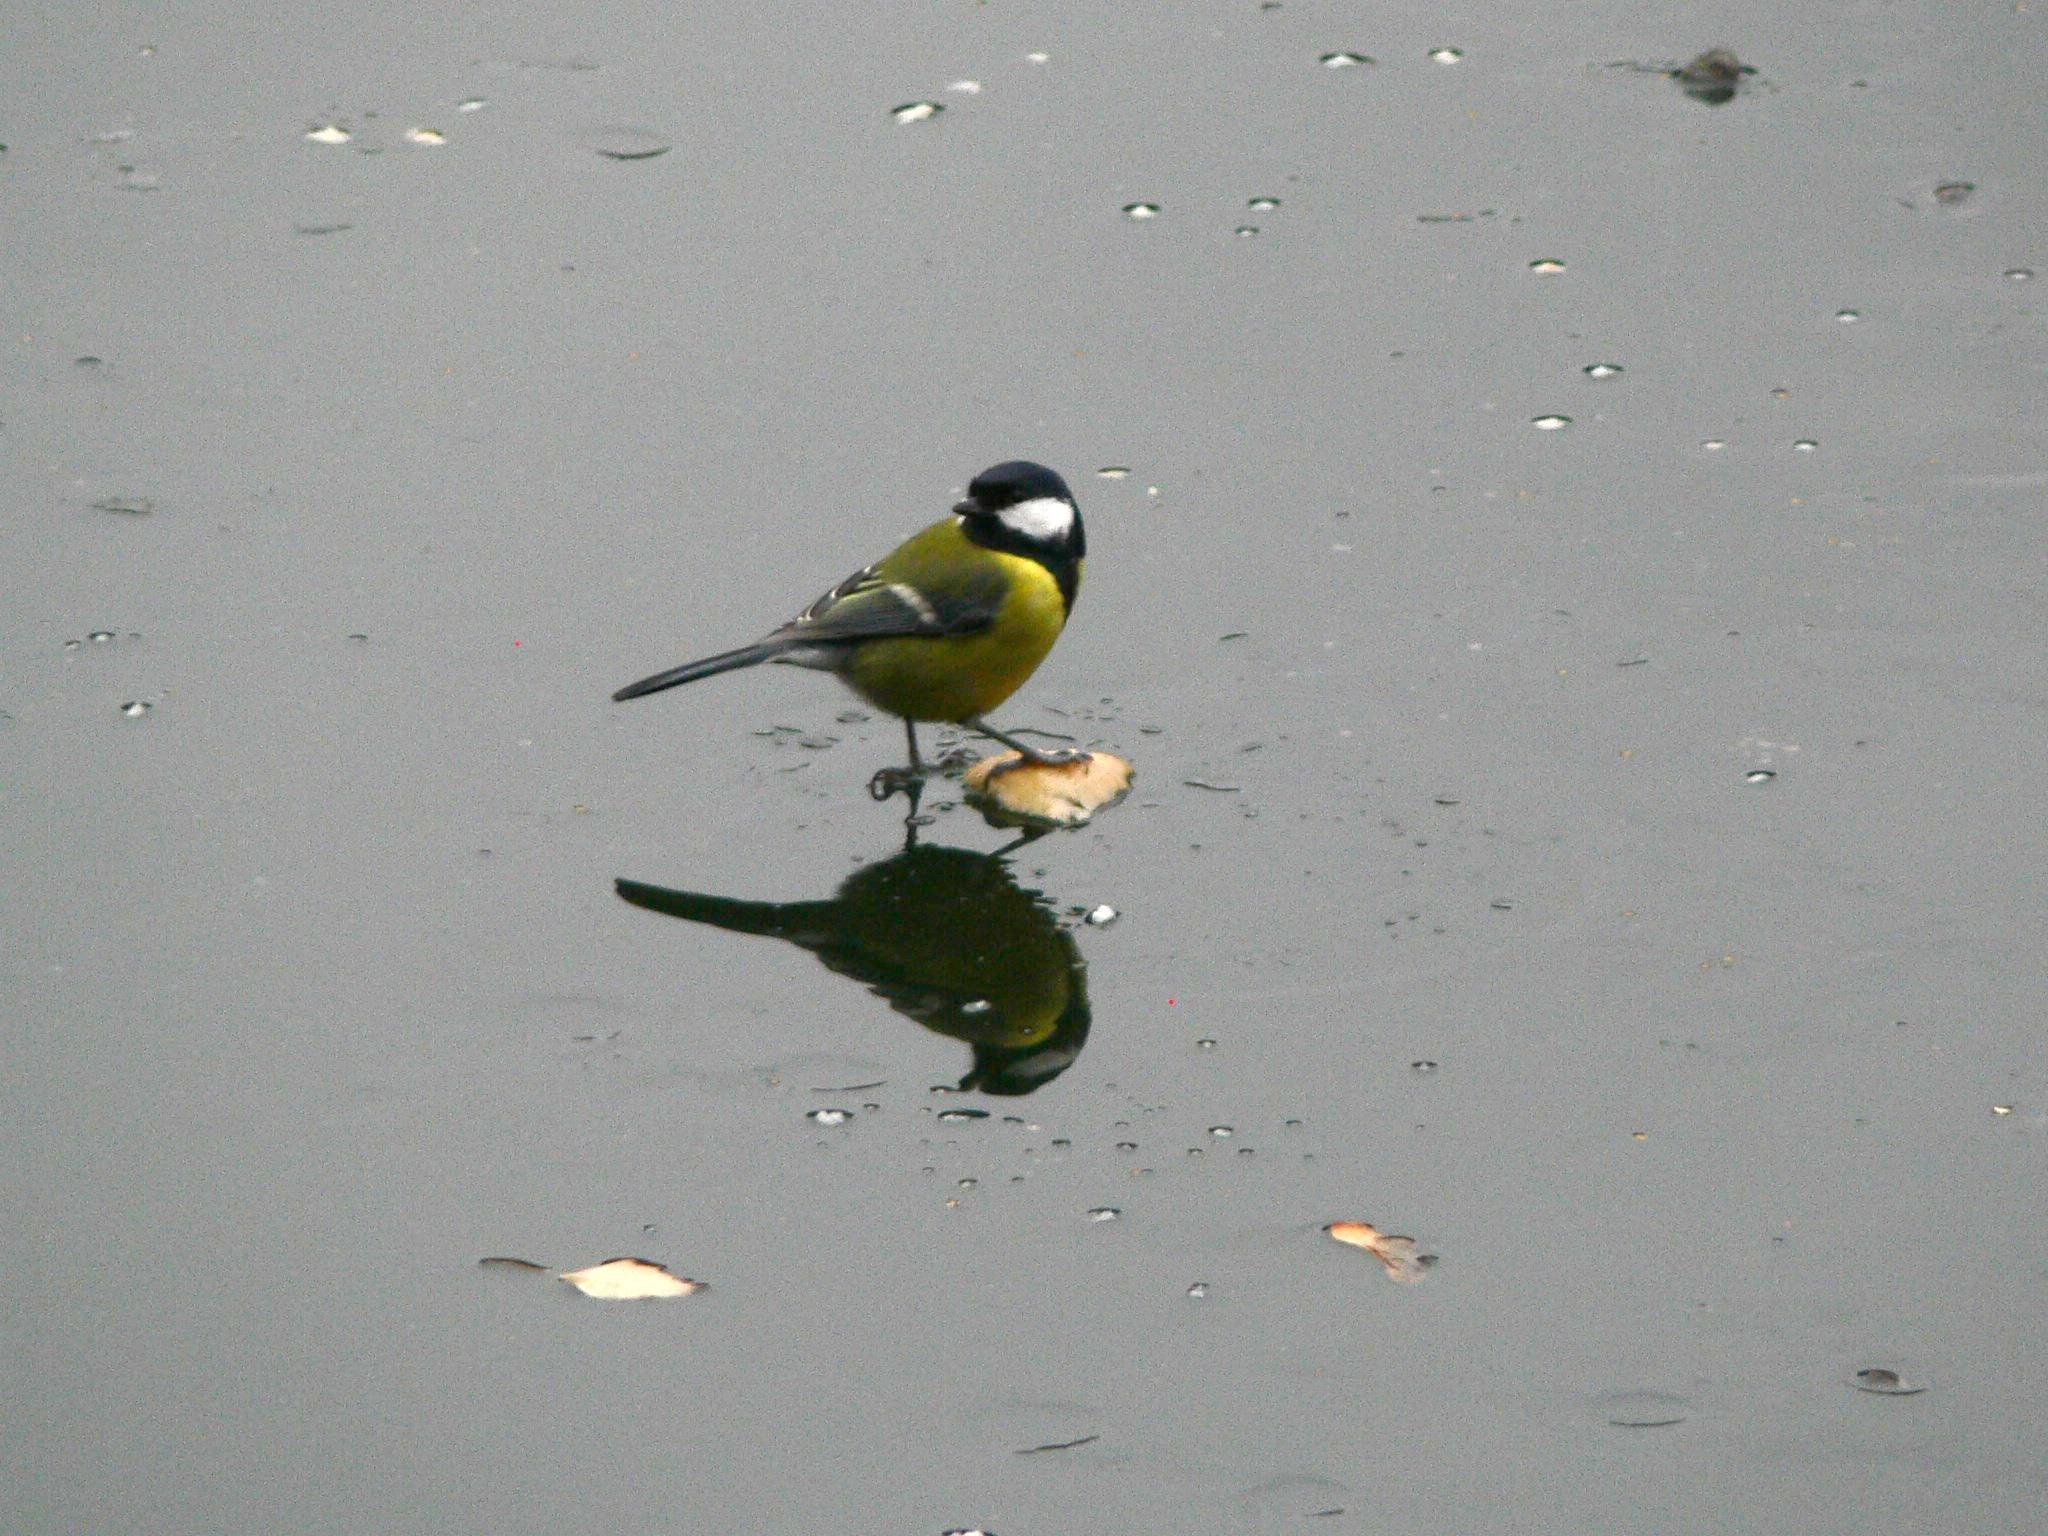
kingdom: Animalia
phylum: Chordata
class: Aves
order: Passeriformes
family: Paridae
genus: Parus
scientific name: Parus major
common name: Great tit
